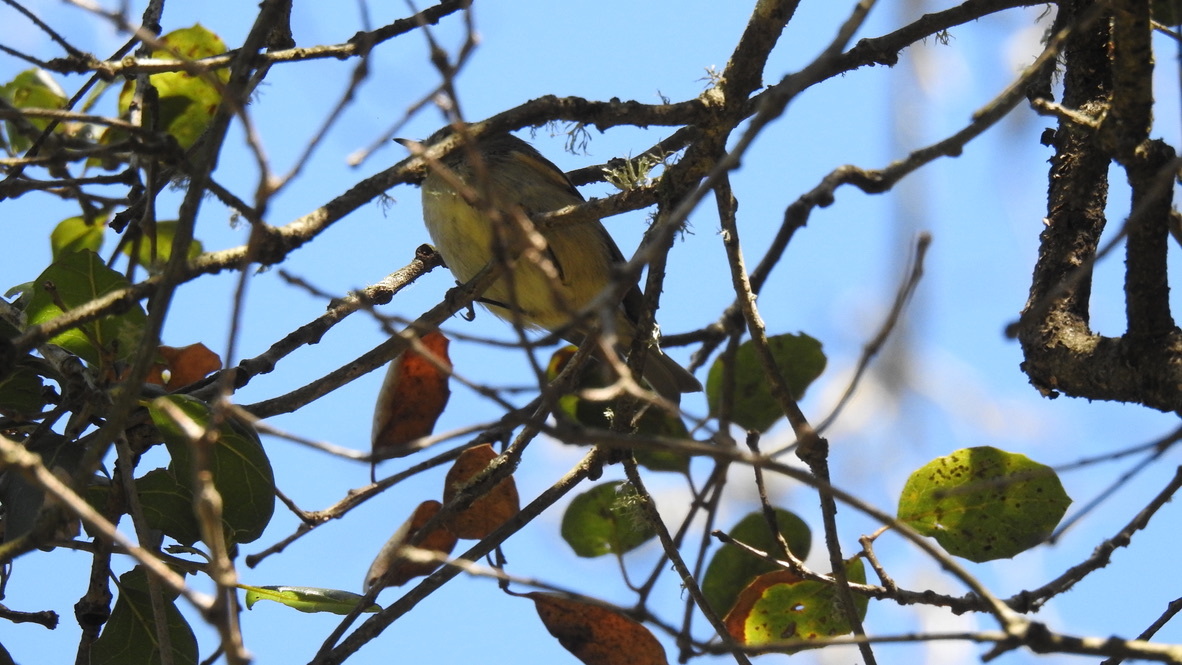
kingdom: Animalia
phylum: Chordata
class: Aves
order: Passeriformes
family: Parulidae
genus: Leiothlypis
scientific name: Leiothlypis celata
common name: Orange-crowned warbler
